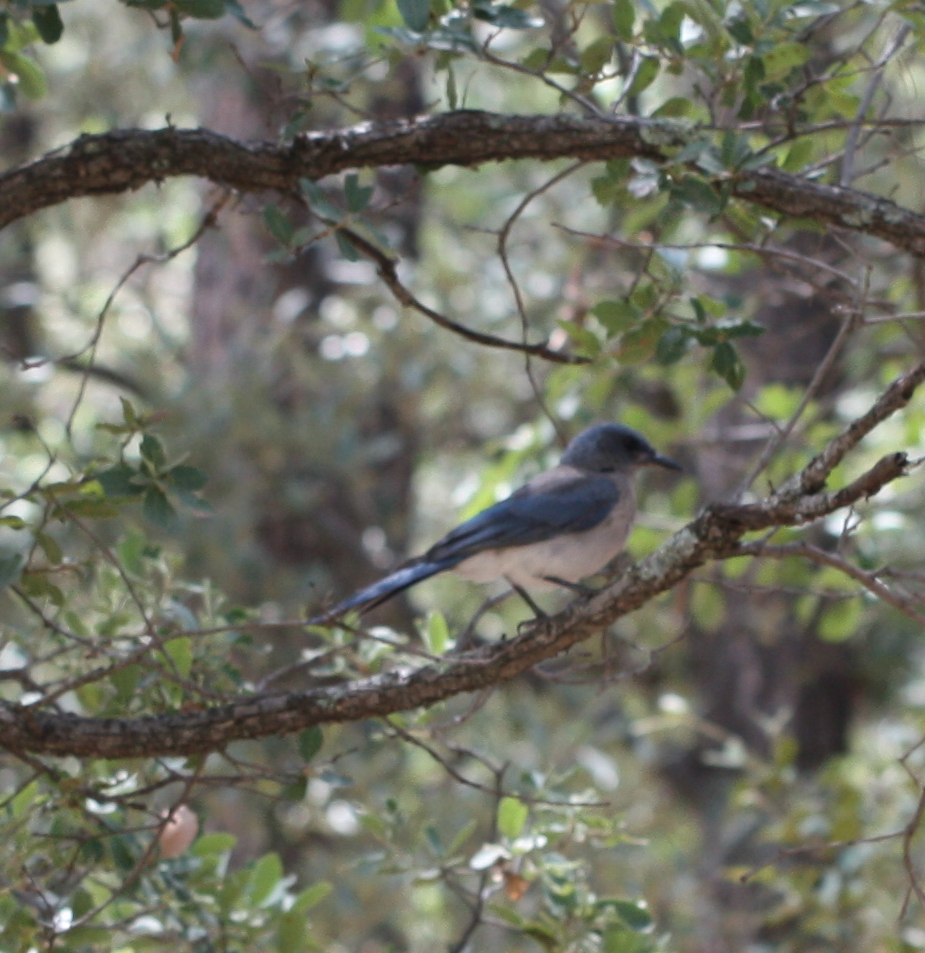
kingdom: Animalia
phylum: Chordata
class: Aves
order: Passeriformes
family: Corvidae
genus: Aphelocoma
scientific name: Aphelocoma wollweberi
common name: Mexican jay
